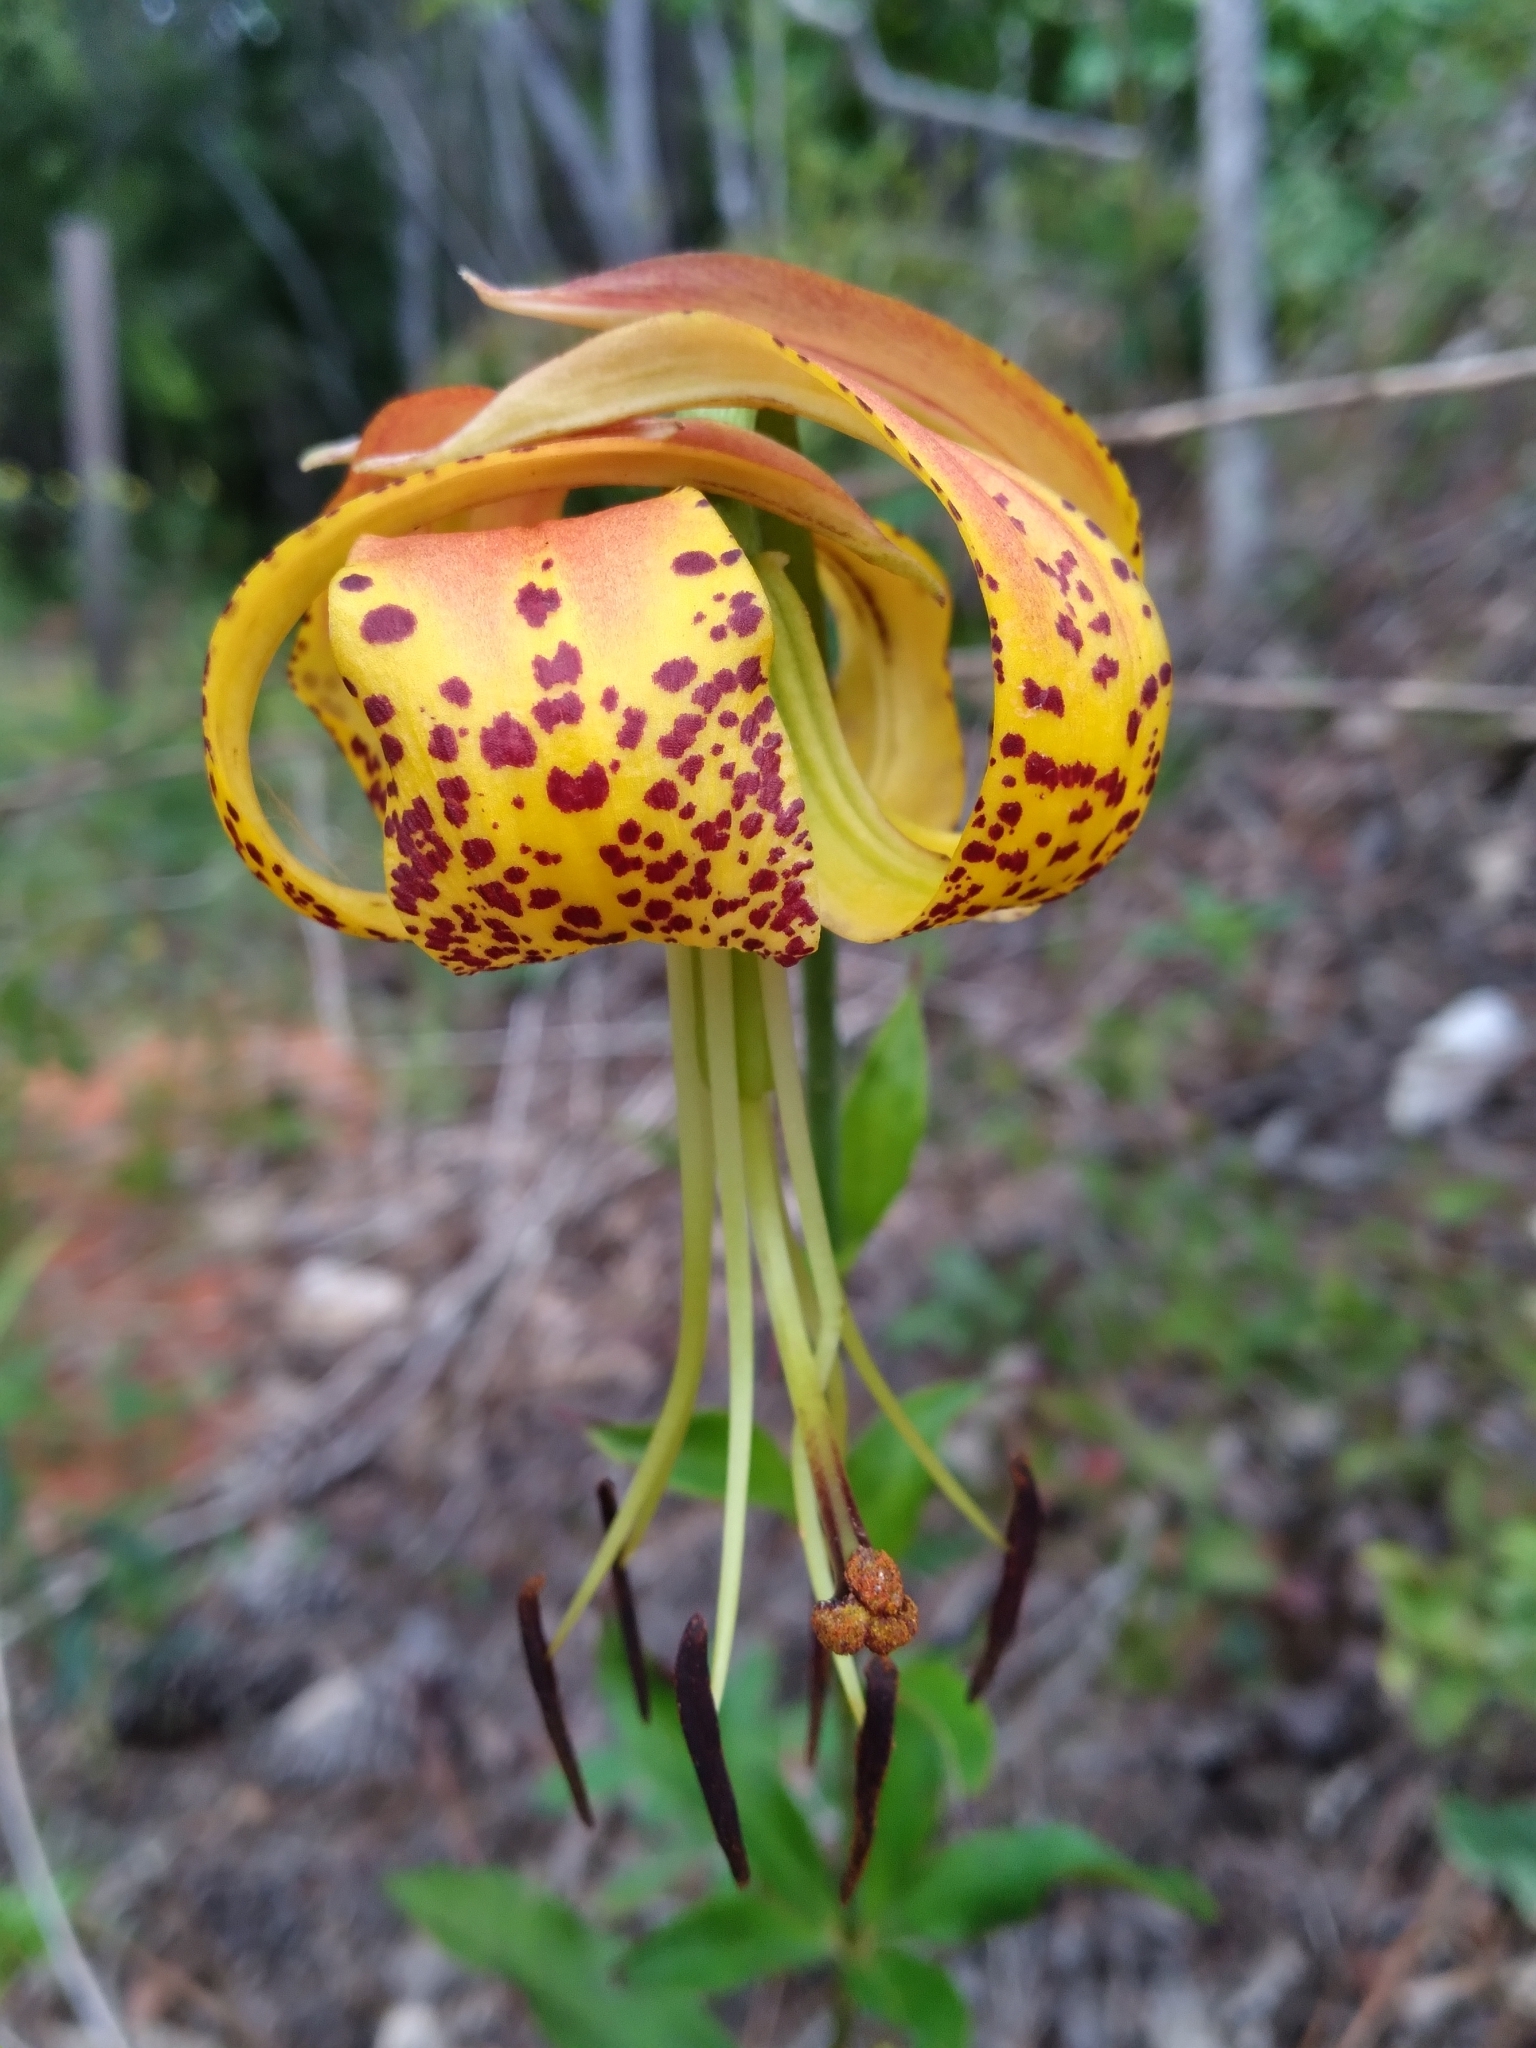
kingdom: Plantae
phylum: Tracheophyta
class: Liliopsida
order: Liliales
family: Liliaceae
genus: Lilium
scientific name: Lilium michauxii
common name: Carolina lily
